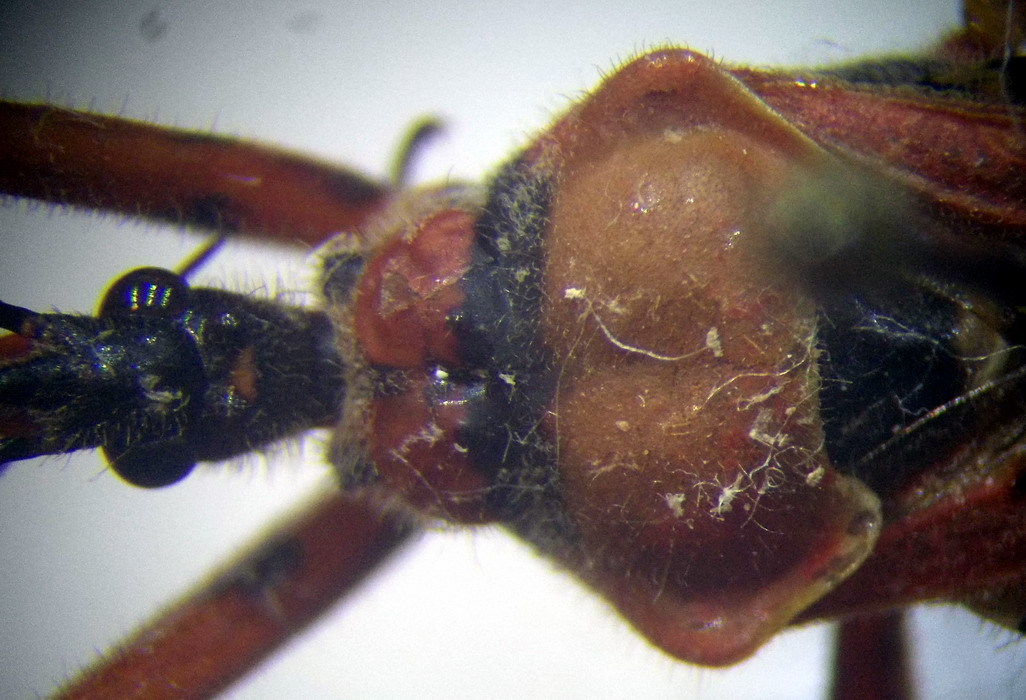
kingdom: Animalia
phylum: Arthropoda
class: Insecta
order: Hemiptera
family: Reduviidae
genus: Rhynocoris
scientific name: Rhynocoris iracundus
